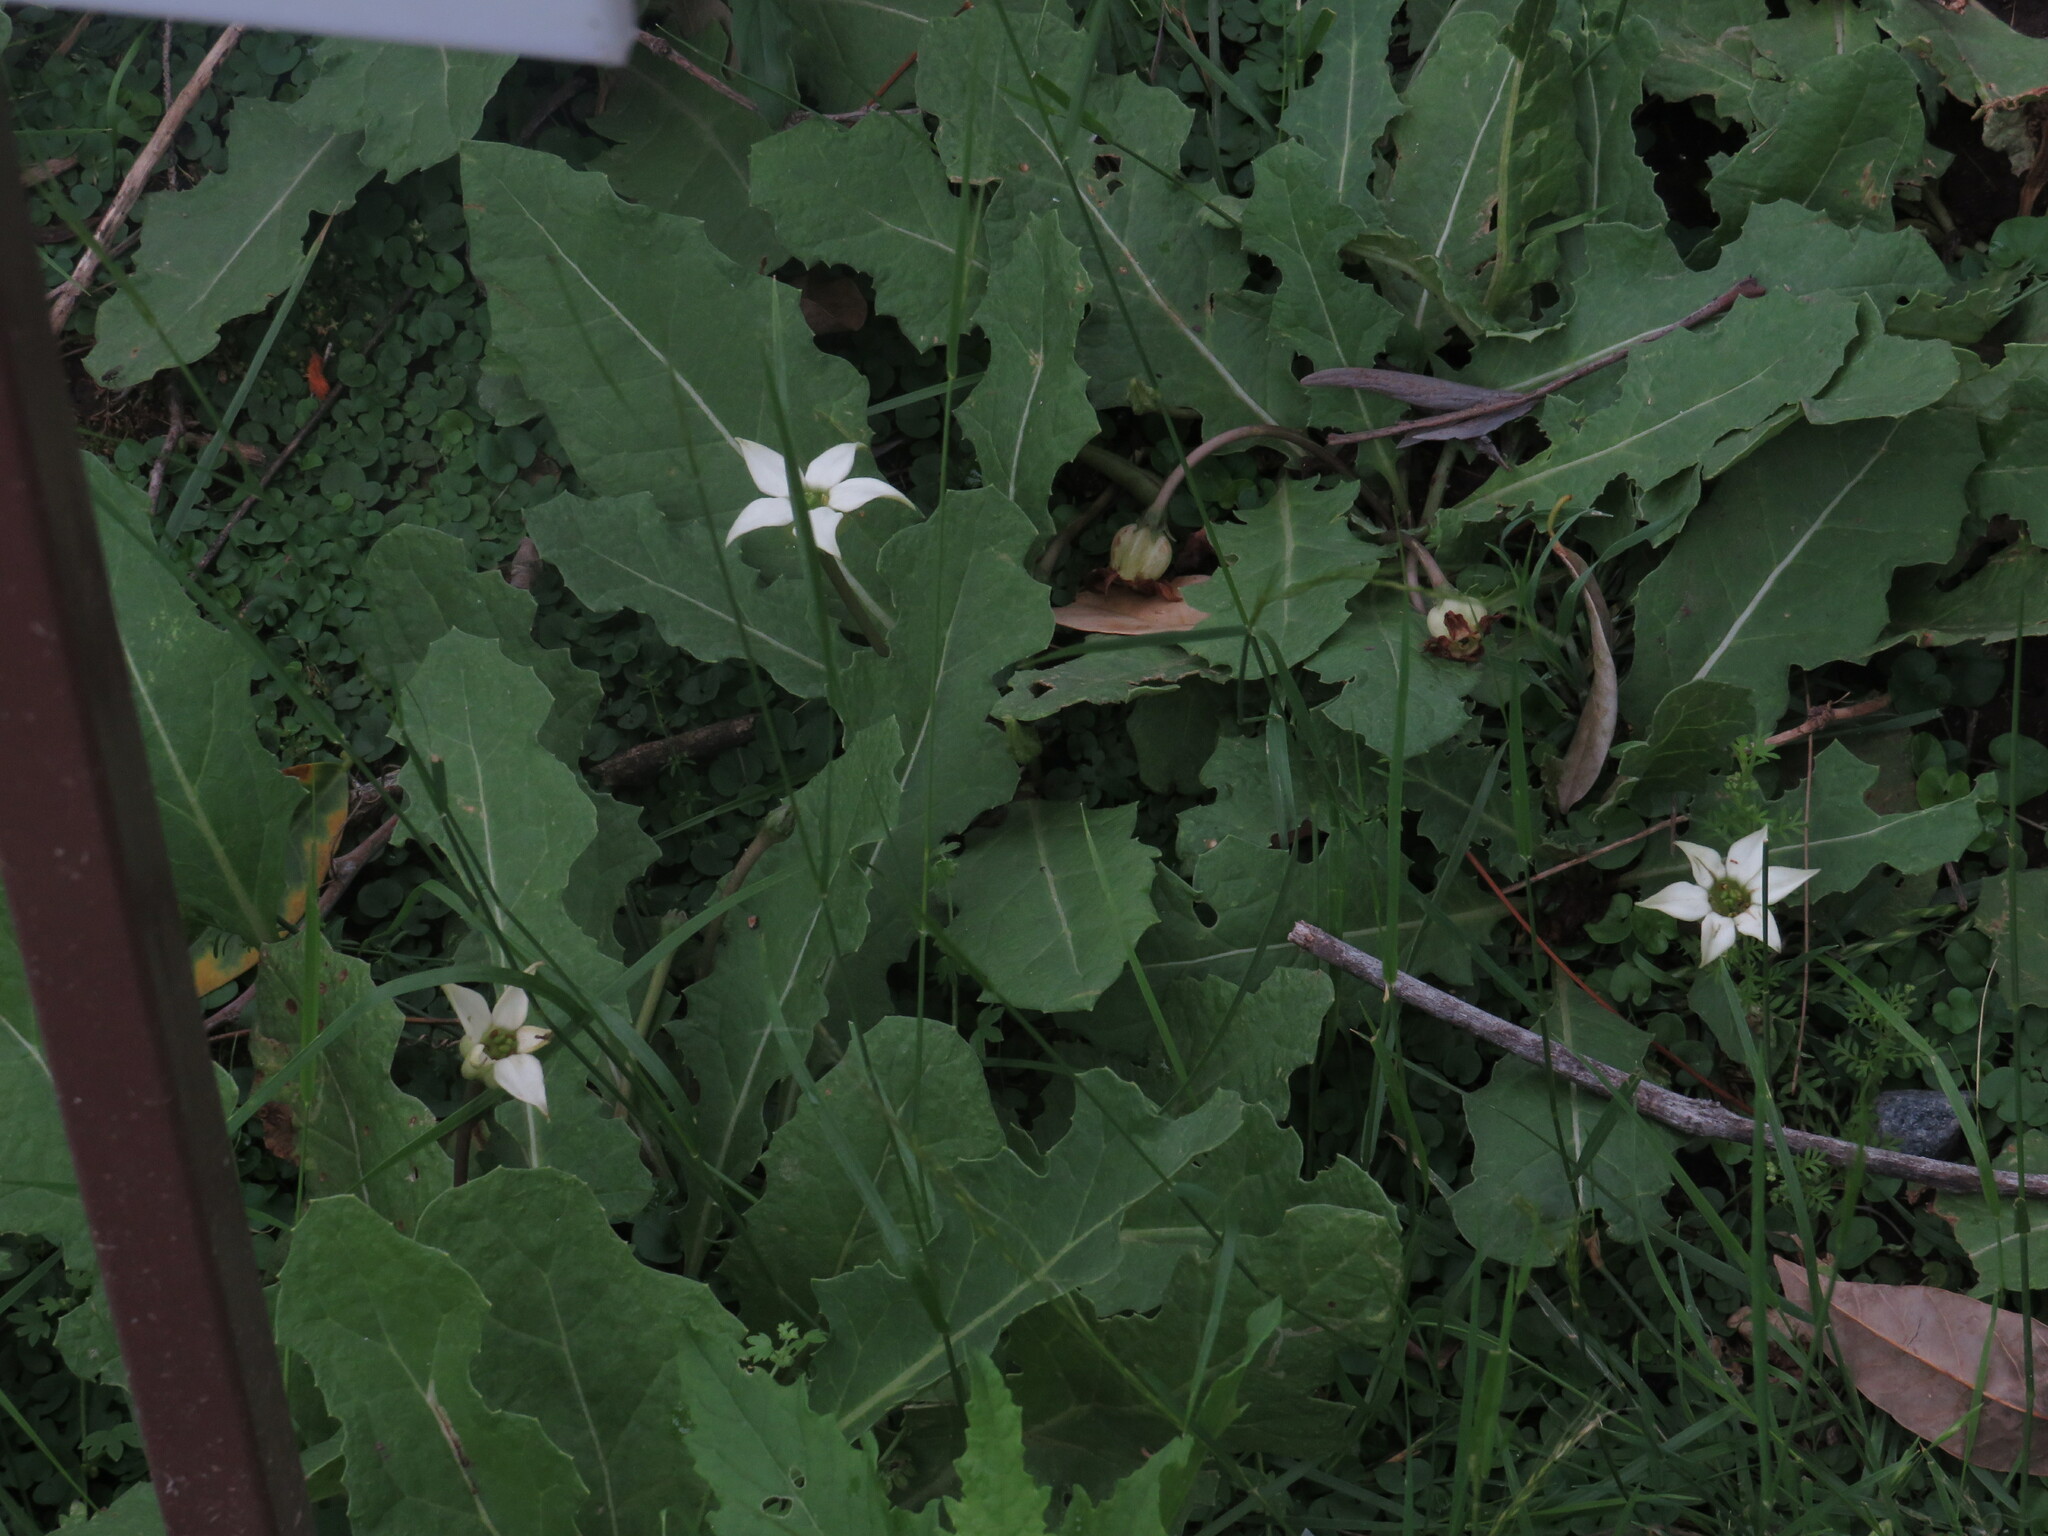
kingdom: Plantae
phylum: Tracheophyta
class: Magnoliopsida
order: Solanales
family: Solanaceae
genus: Jaborosa
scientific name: Jaborosa runcinata
